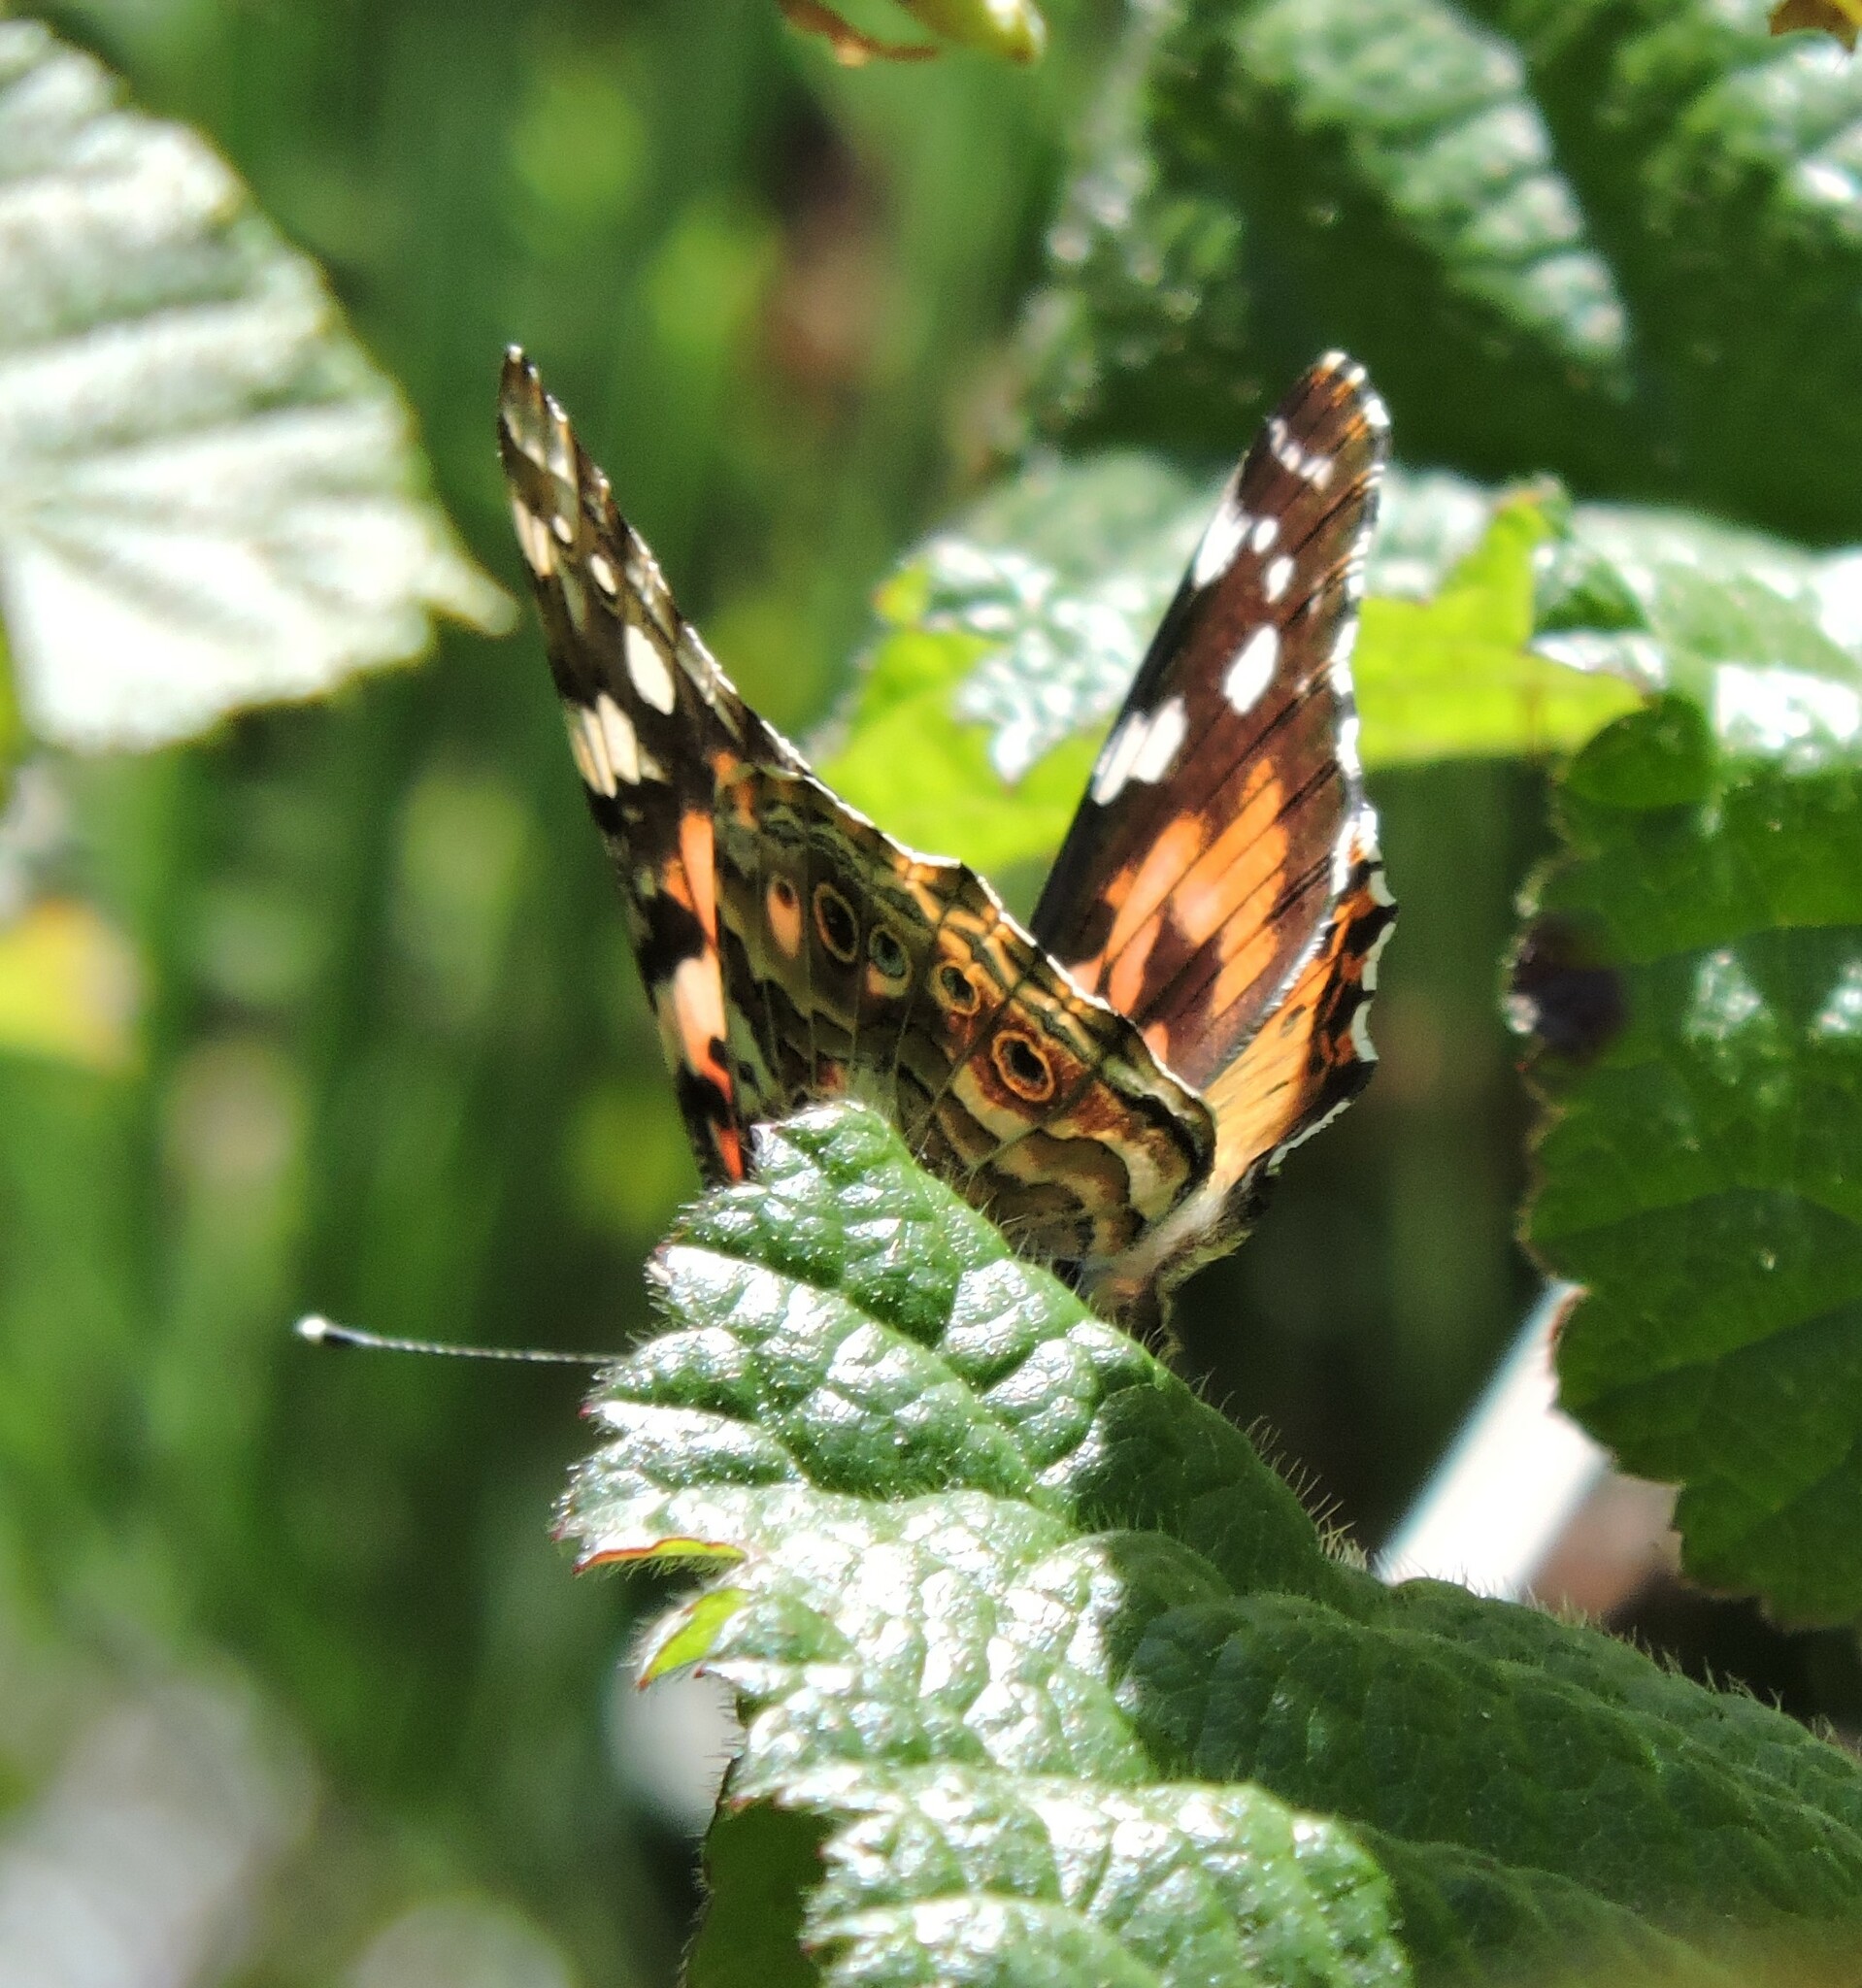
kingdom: Animalia
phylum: Arthropoda
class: Insecta
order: Lepidoptera
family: Nymphalidae
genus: Vanessa
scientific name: Vanessa cardui
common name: Painted lady
